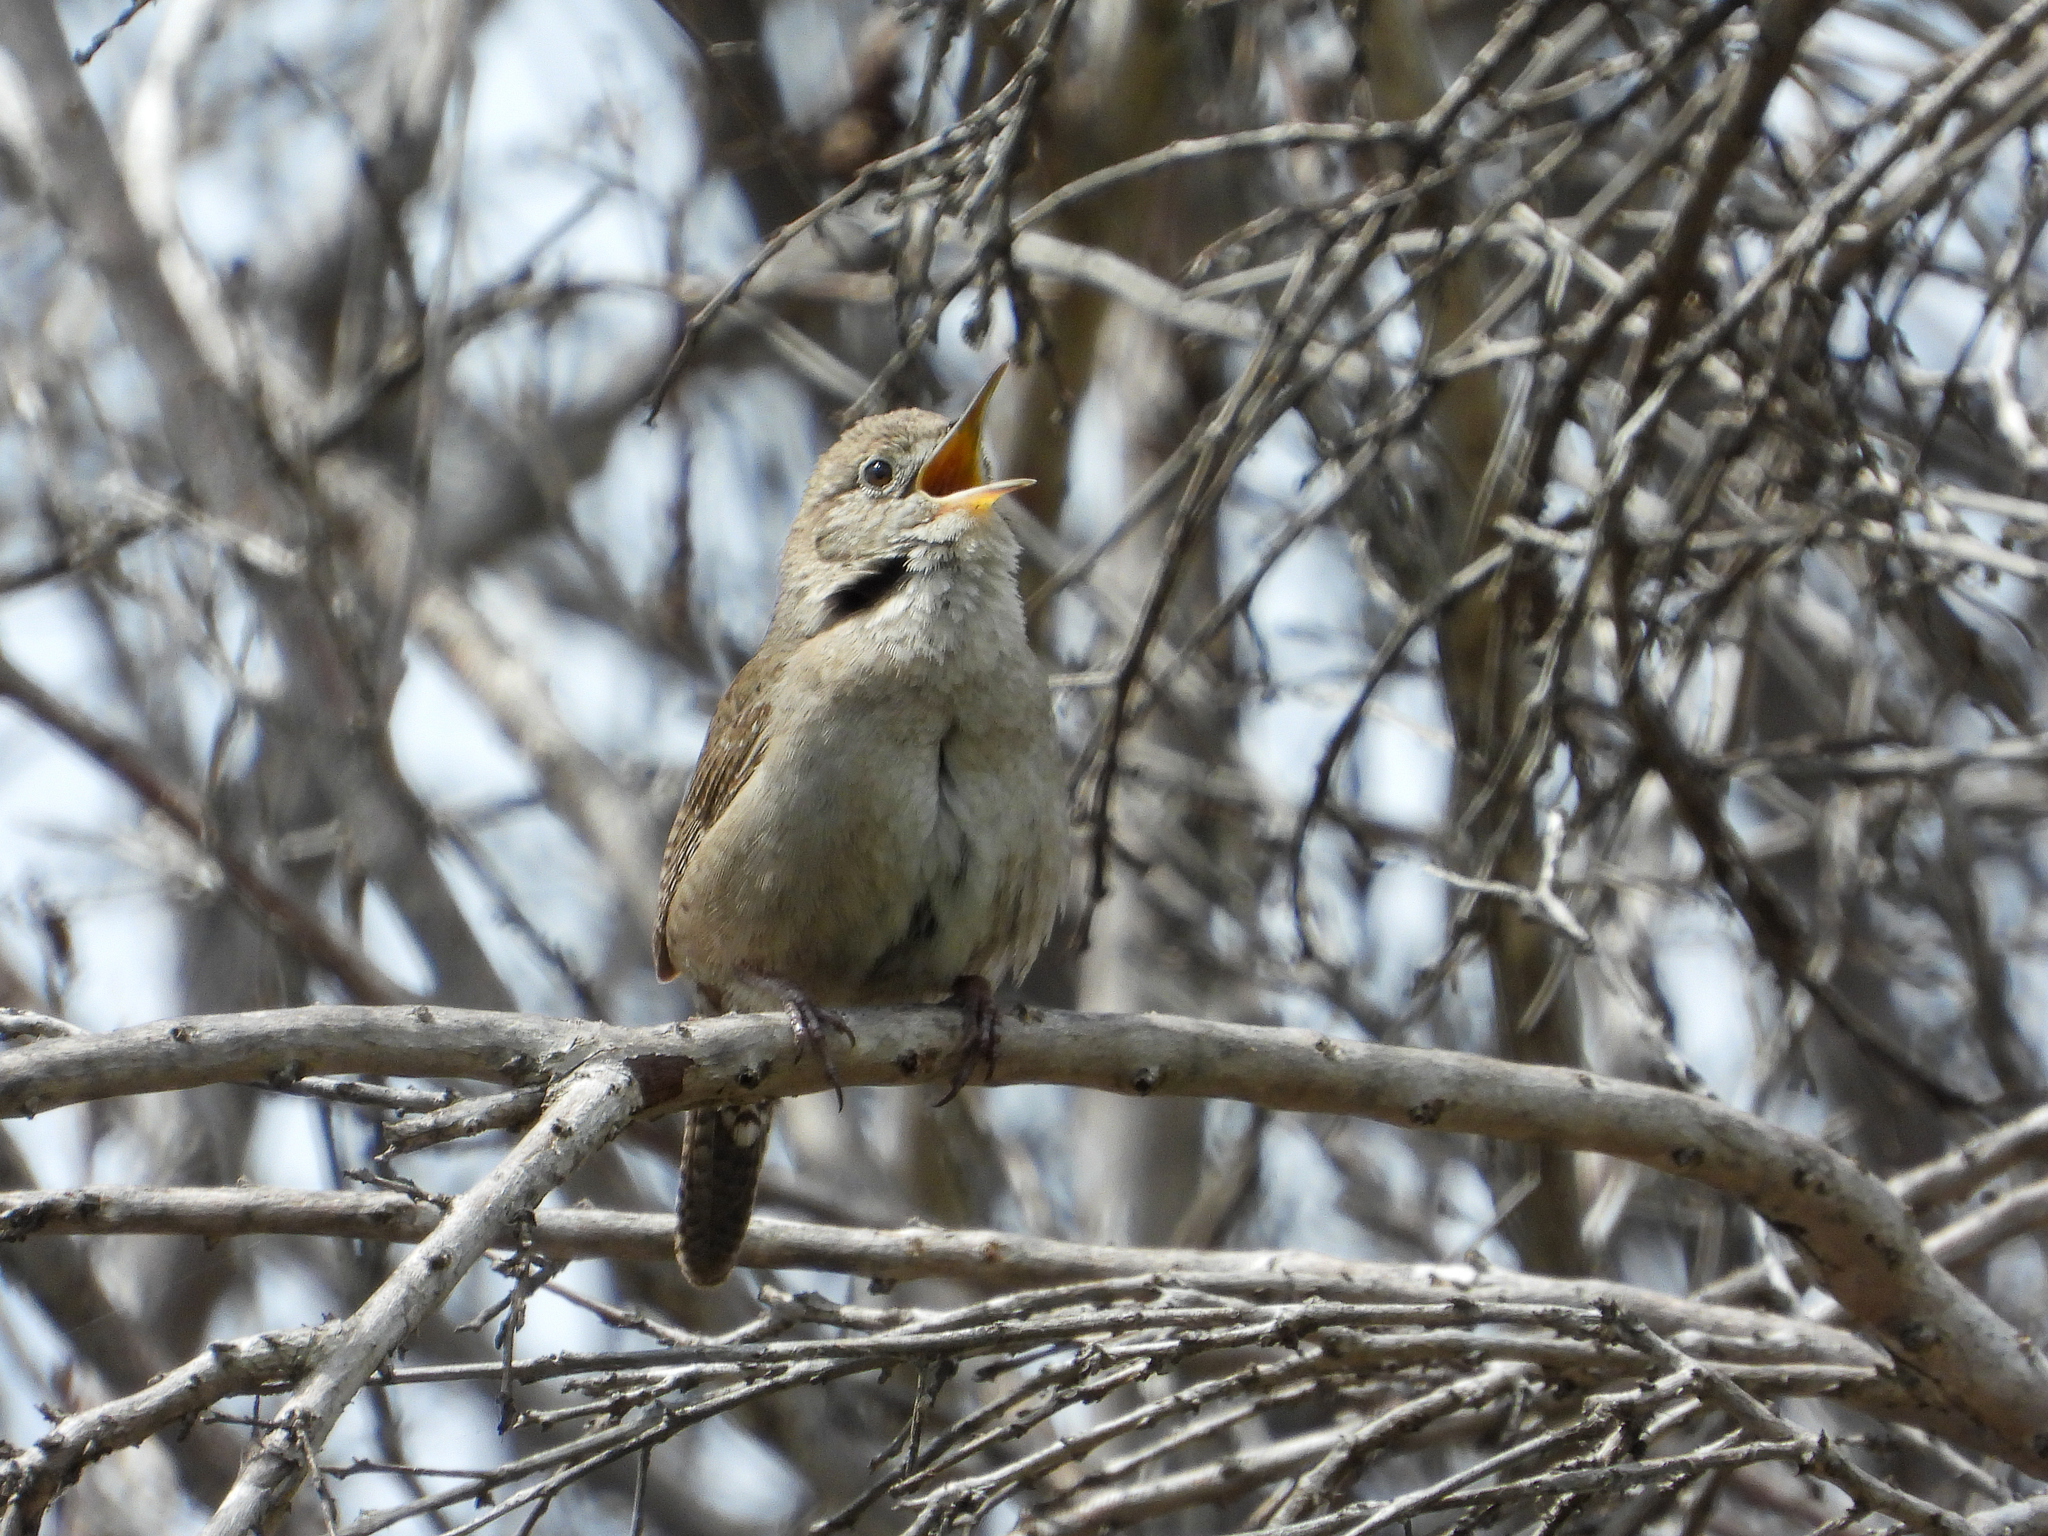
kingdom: Animalia
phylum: Chordata
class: Aves
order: Passeriformes
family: Troglodytidae
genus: Troglodytes
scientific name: Troglodytes aedon
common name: House wren
